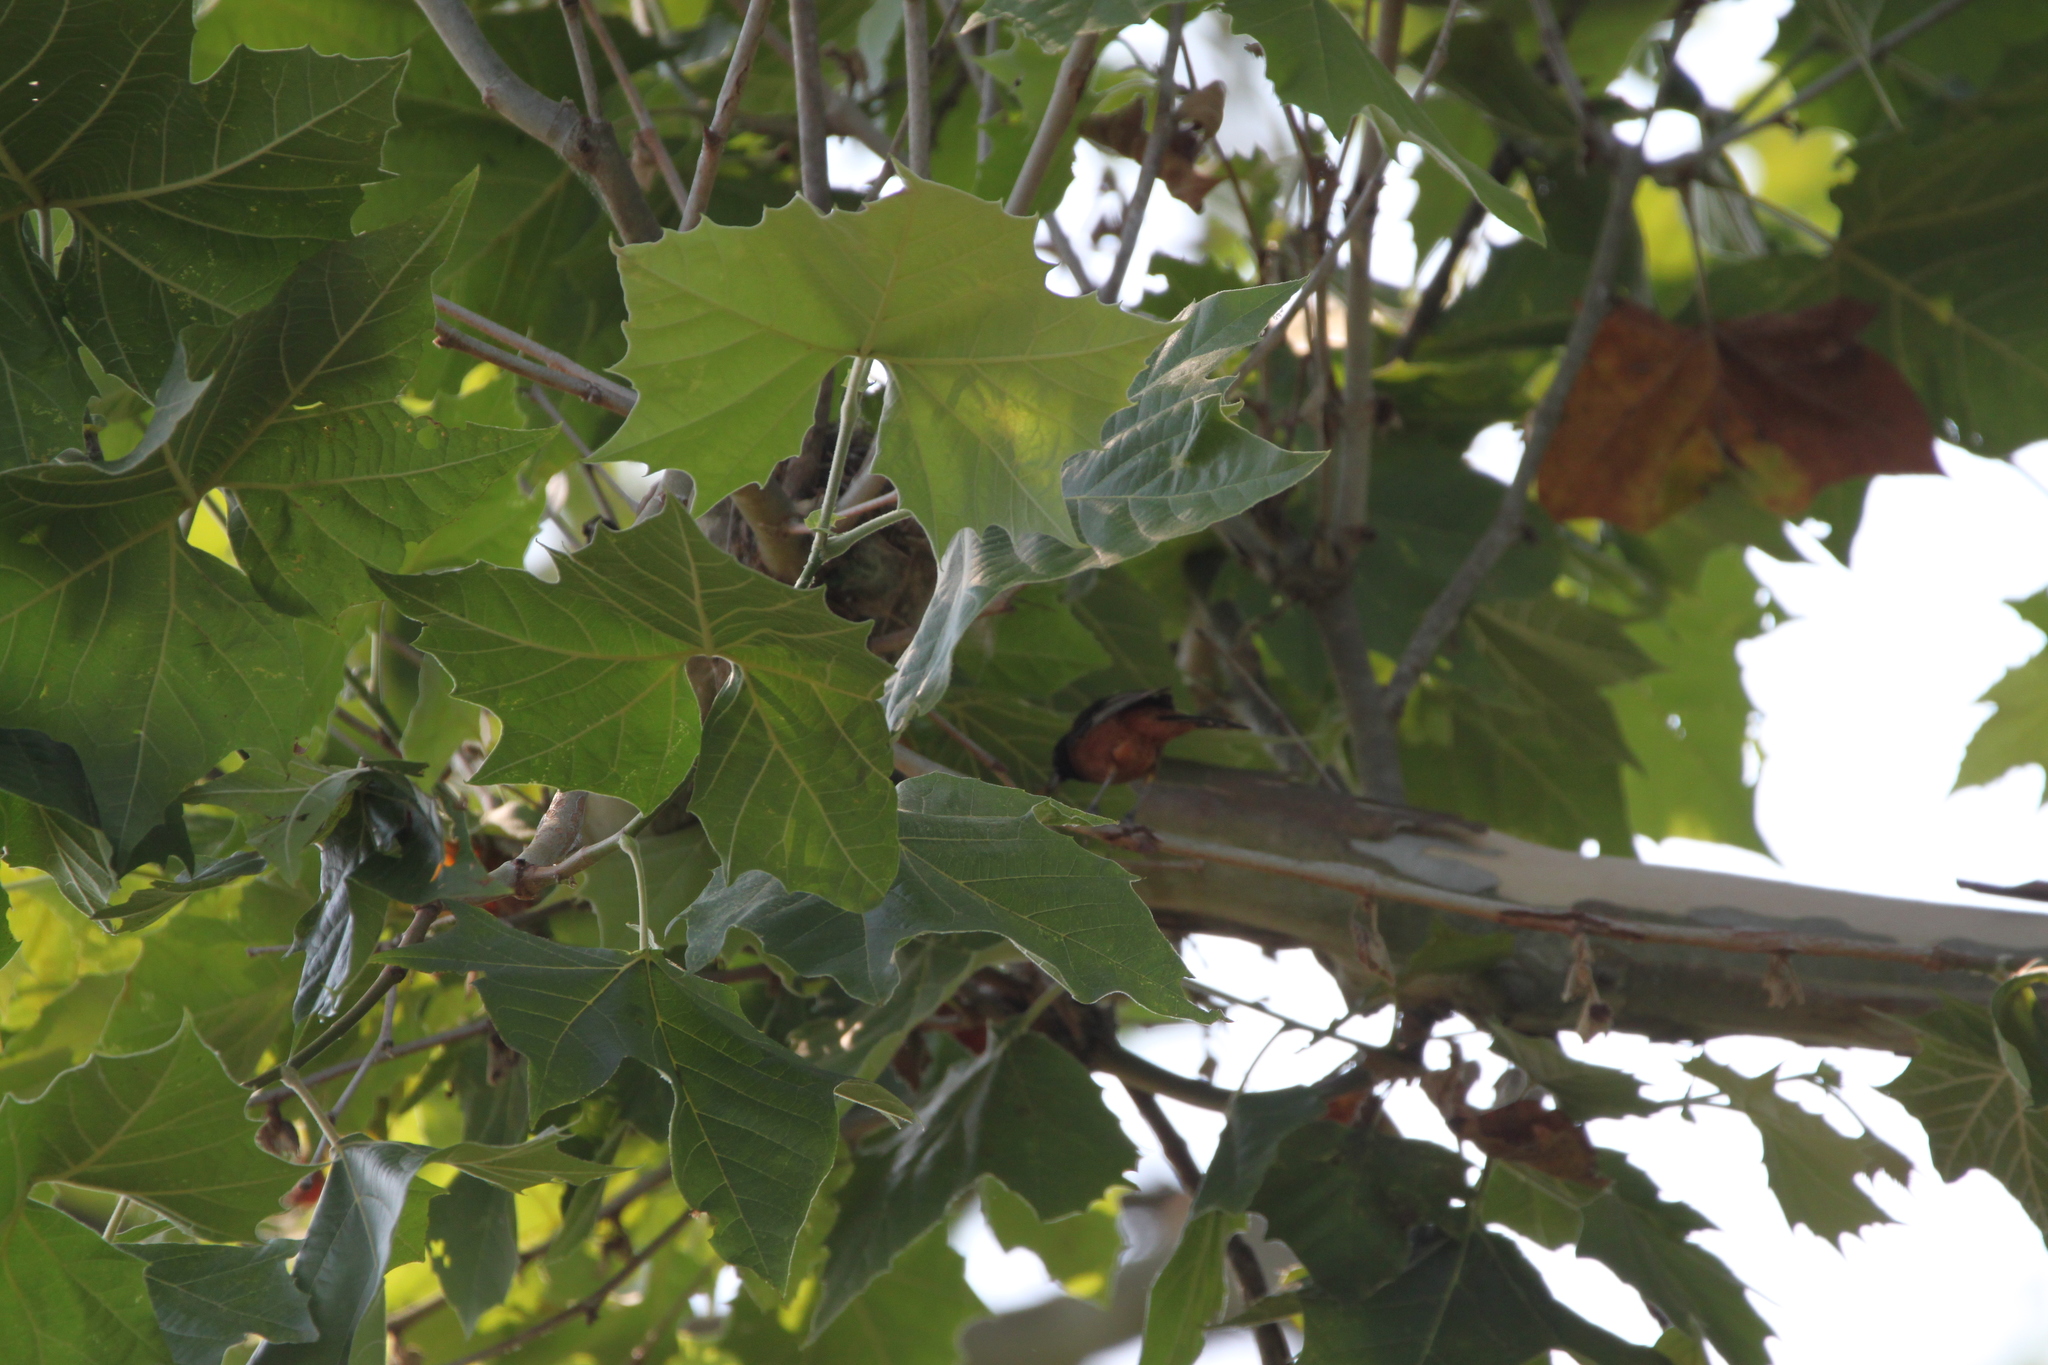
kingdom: Animalia
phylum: Chordata
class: Aves
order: Passeriformes
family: Icteridae
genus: Icterus
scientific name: Icterus spurius
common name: Orchard oriole
